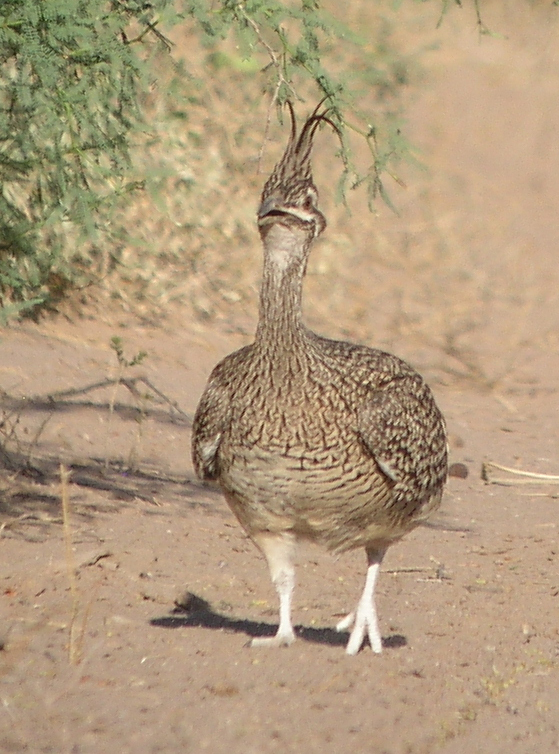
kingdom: Animalia
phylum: Chordata
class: Aves
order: Tinamiformes
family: Tinamidae
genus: Eudromia
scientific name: Eudromia elegans
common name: Elegant crested tinamou
